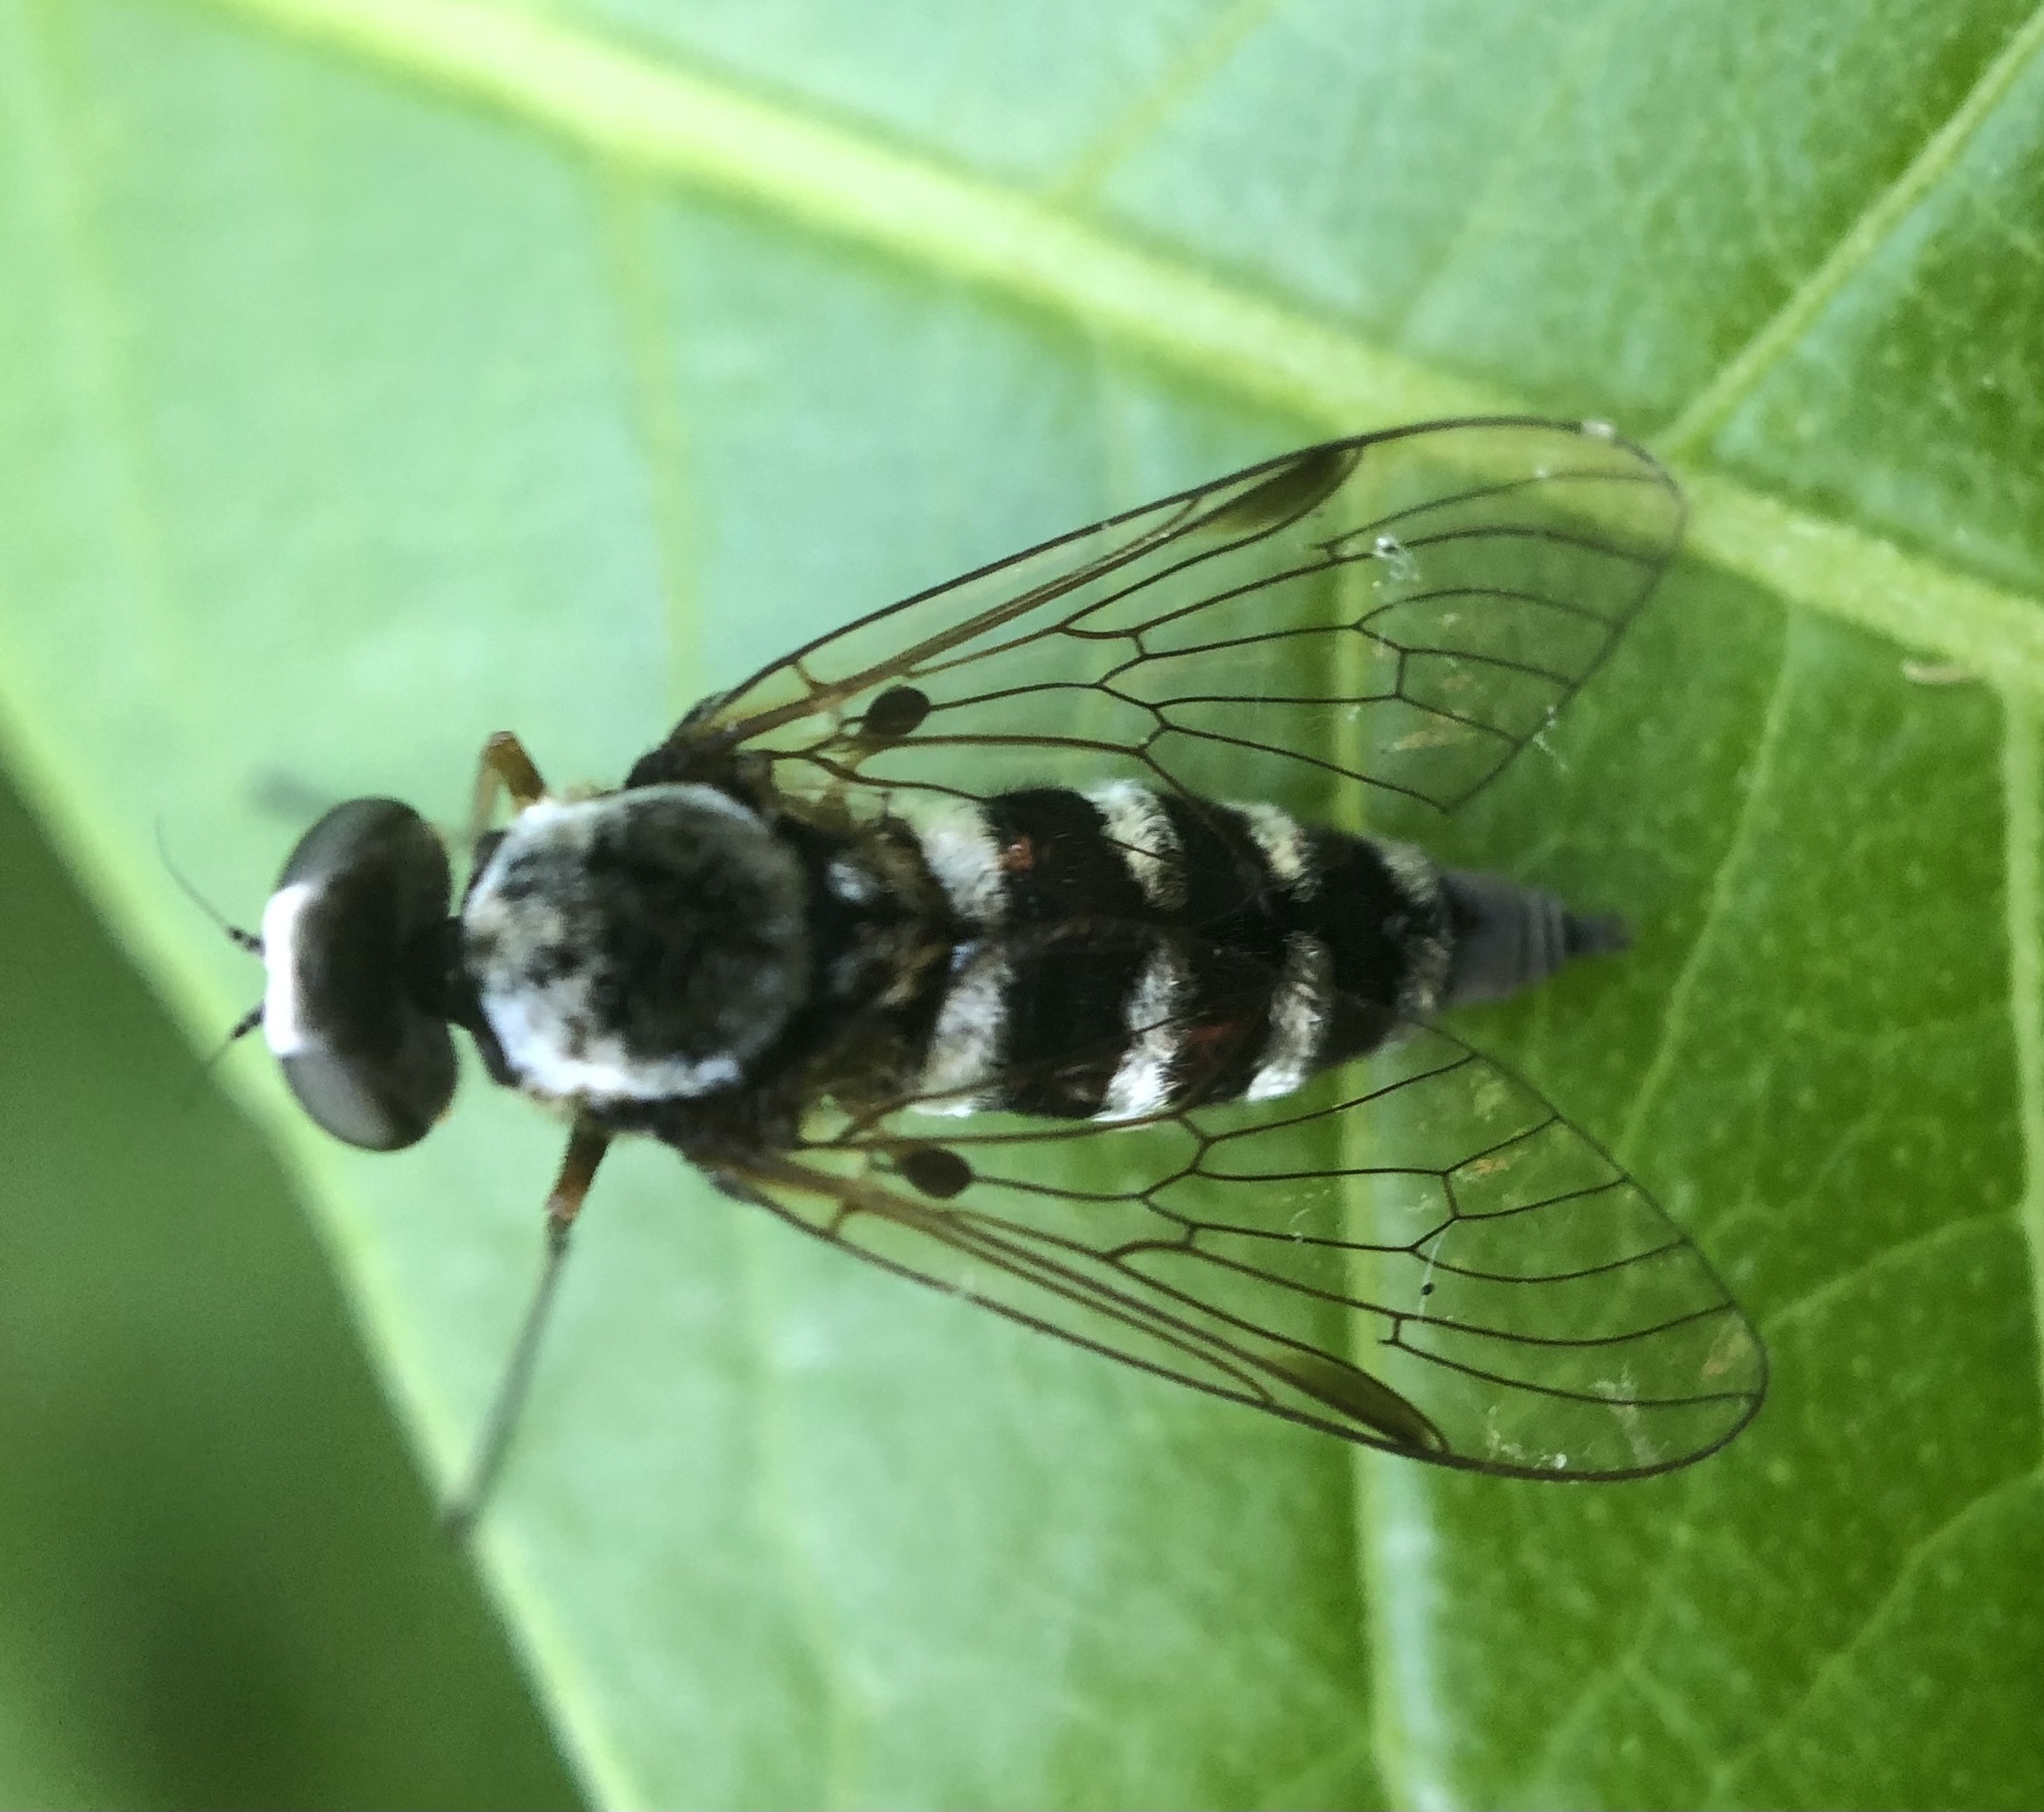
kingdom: Animalia
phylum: Arthropoda
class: Insecta
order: Diptera
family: Rhagionidae
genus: Chrysopilus
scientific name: Chrysopilus fasciatus
